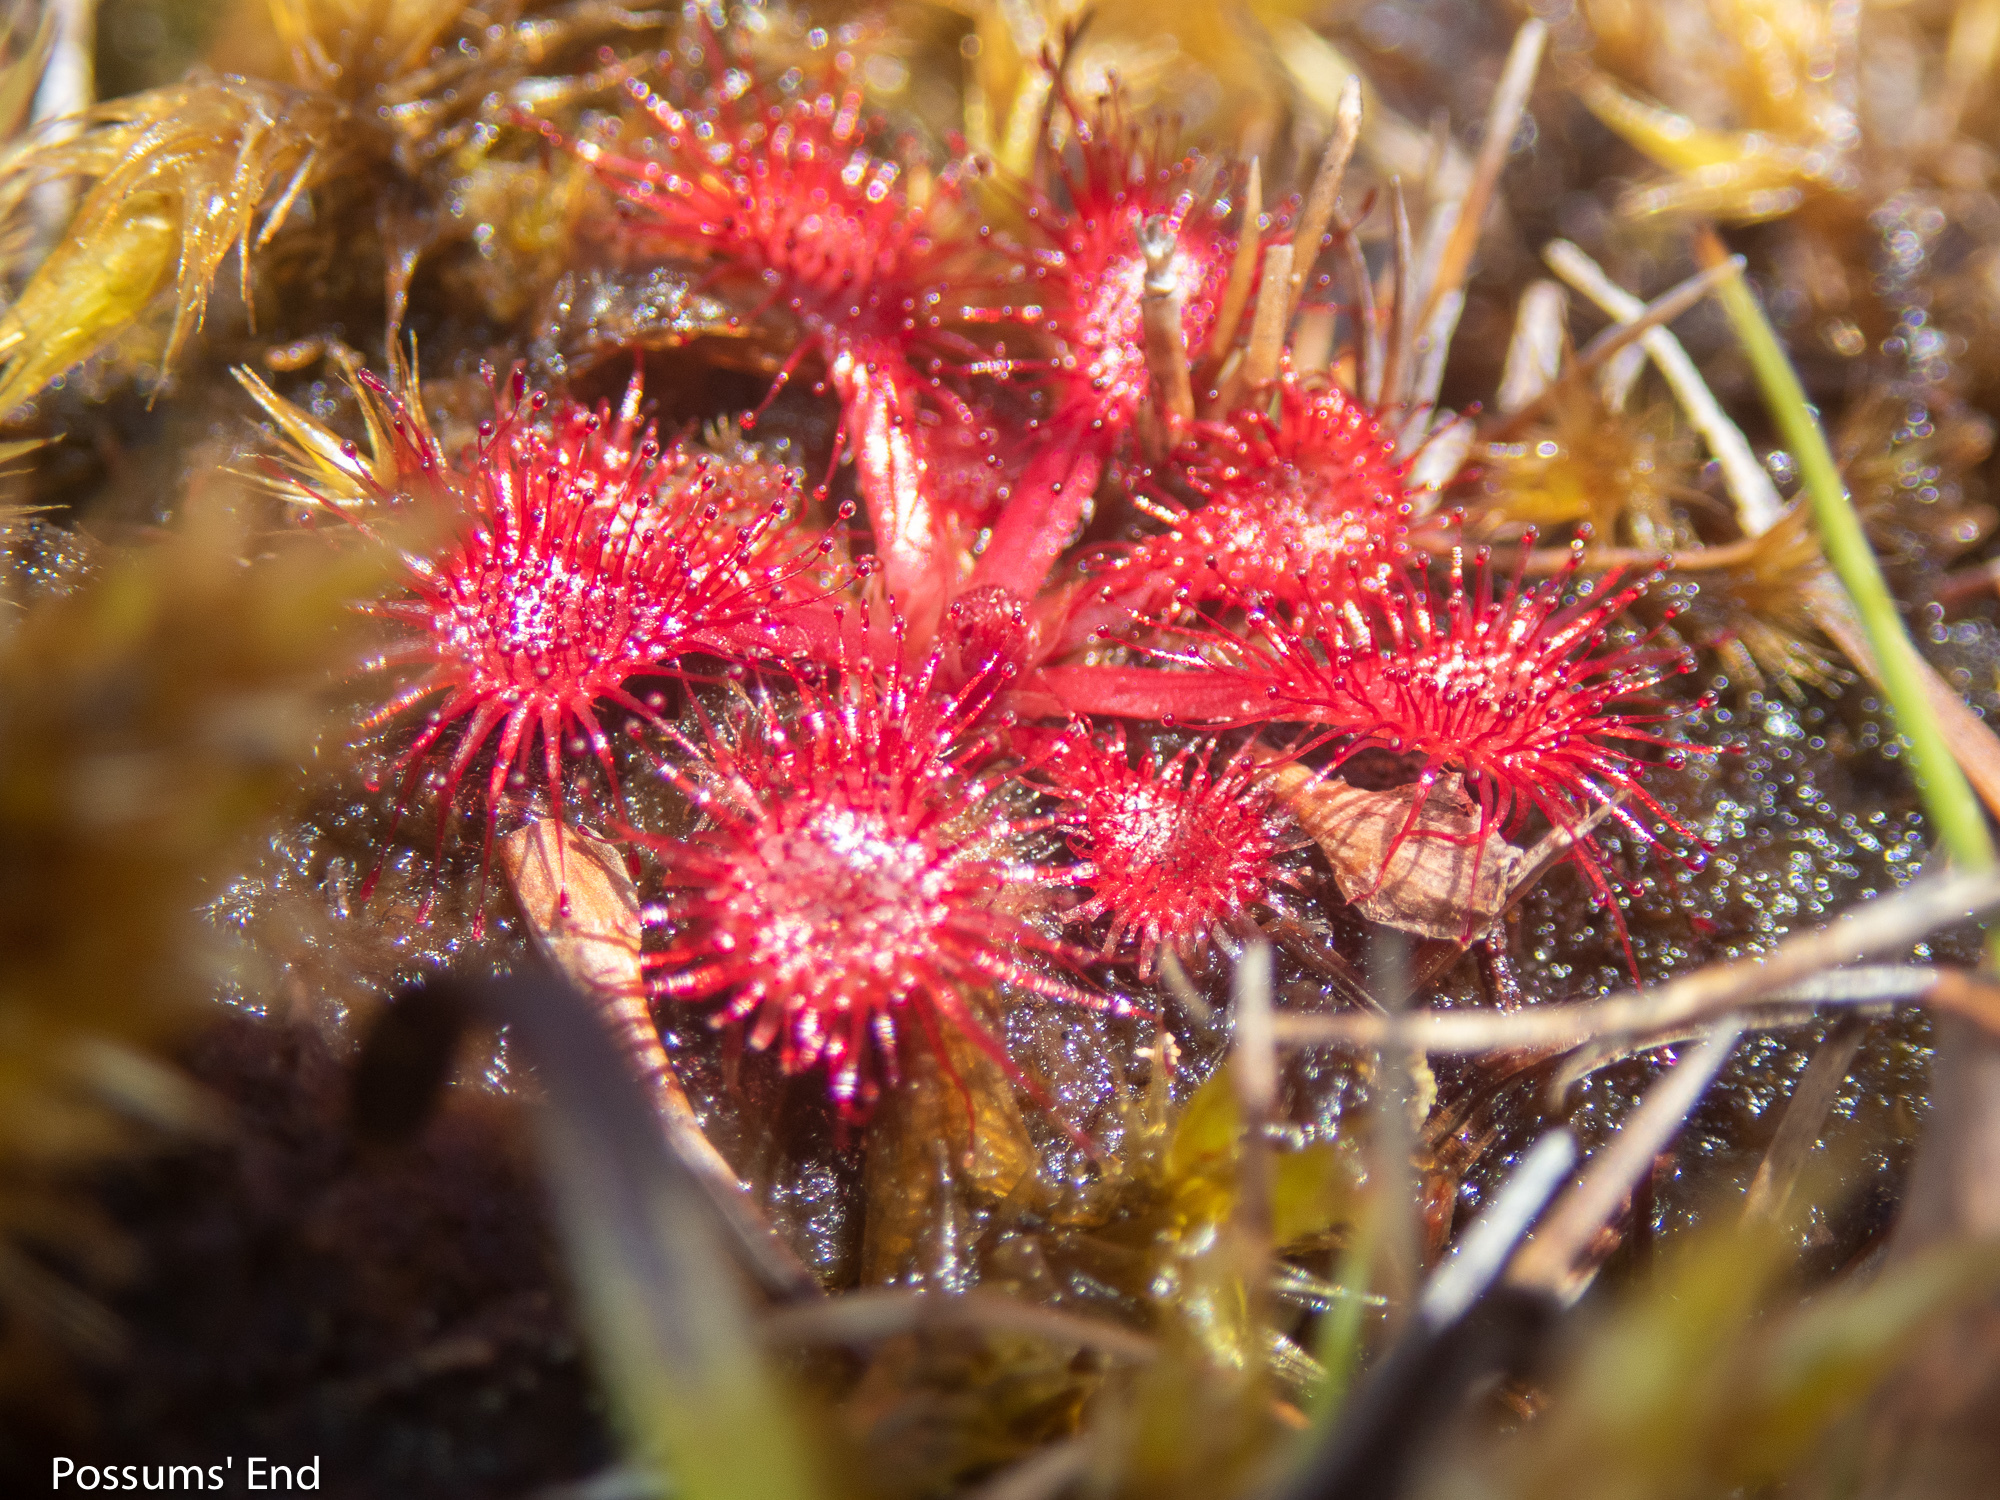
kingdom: Plantae
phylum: Tracheophyta
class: Magnoliopsida
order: Caryophyllales
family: Droseraceae
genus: Drosera
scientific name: Drosera spatulata
